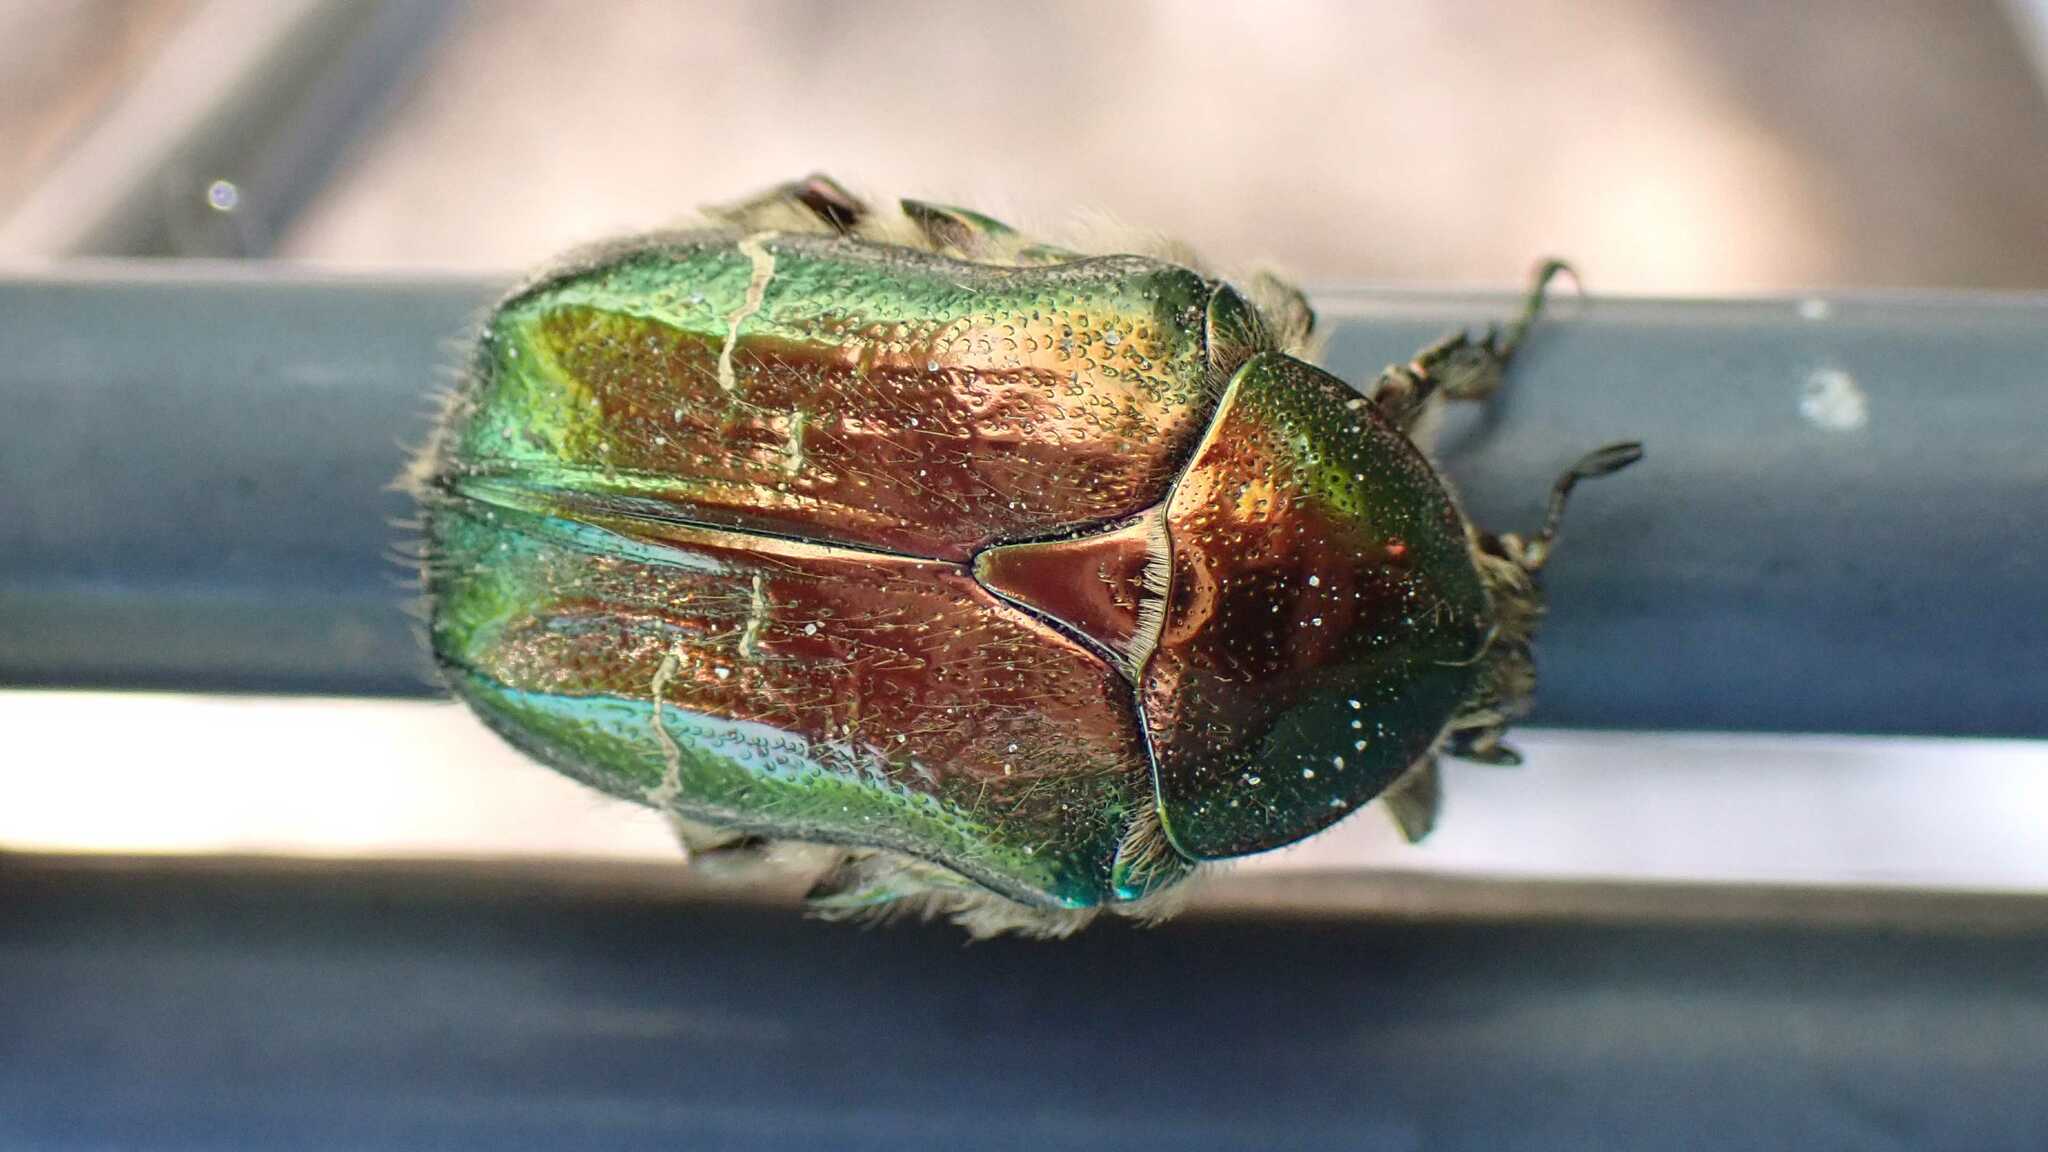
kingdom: Animalia
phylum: Arthropoda
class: Insecta
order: Coleoptera
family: Scarabaeidae
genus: Cetonia
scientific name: Cetonia aurata
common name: Rose chafer
